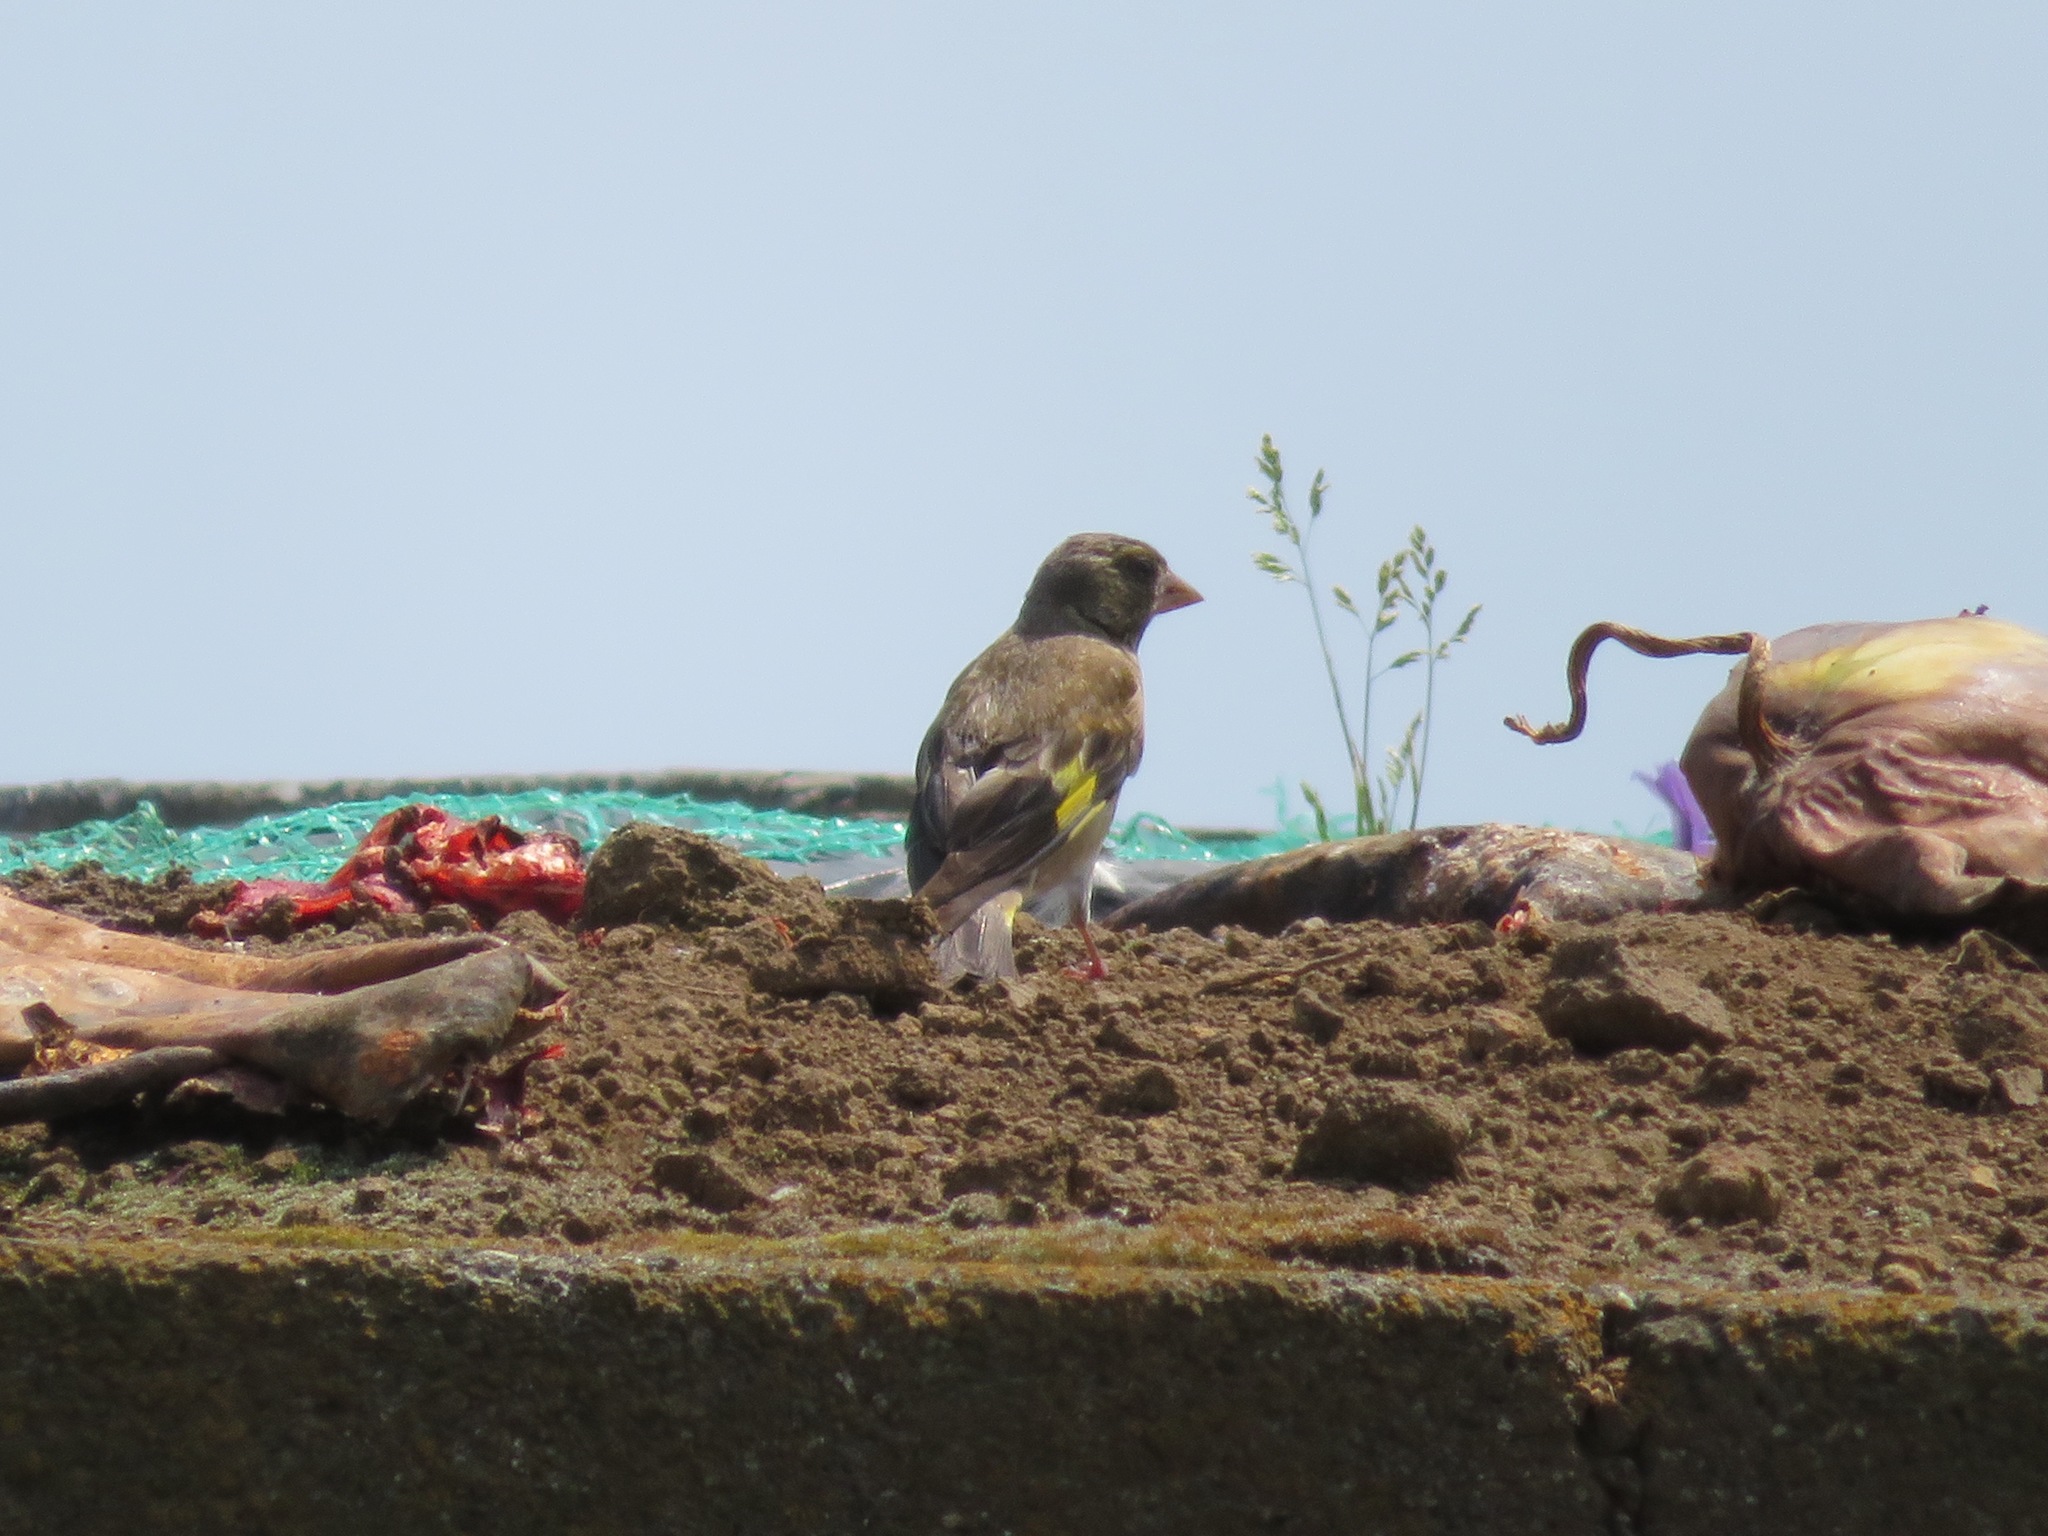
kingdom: Plantae
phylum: Tracheophyta
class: Liliopsida
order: Poales
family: Poaceae
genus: Chloris
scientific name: Chloris sinica
